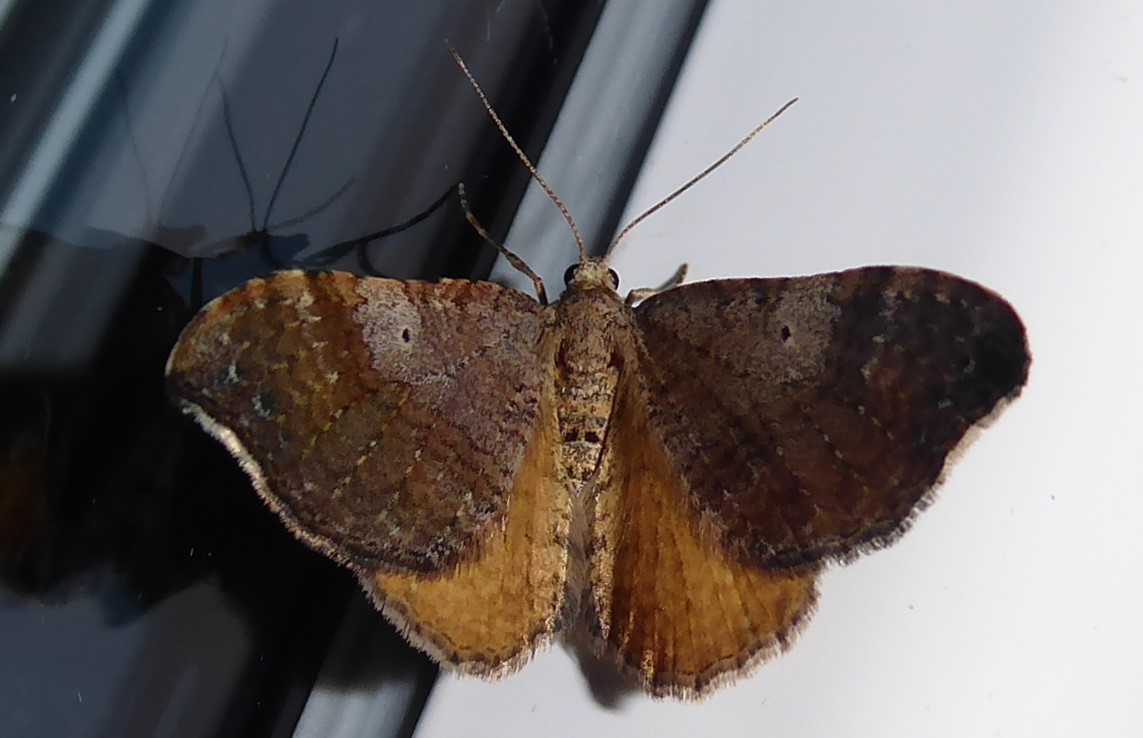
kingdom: Animalia
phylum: Arthropoda
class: Insecta
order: Lepidoptera
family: Geometridae
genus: Homodotis
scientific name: Homodotis megaspilata
